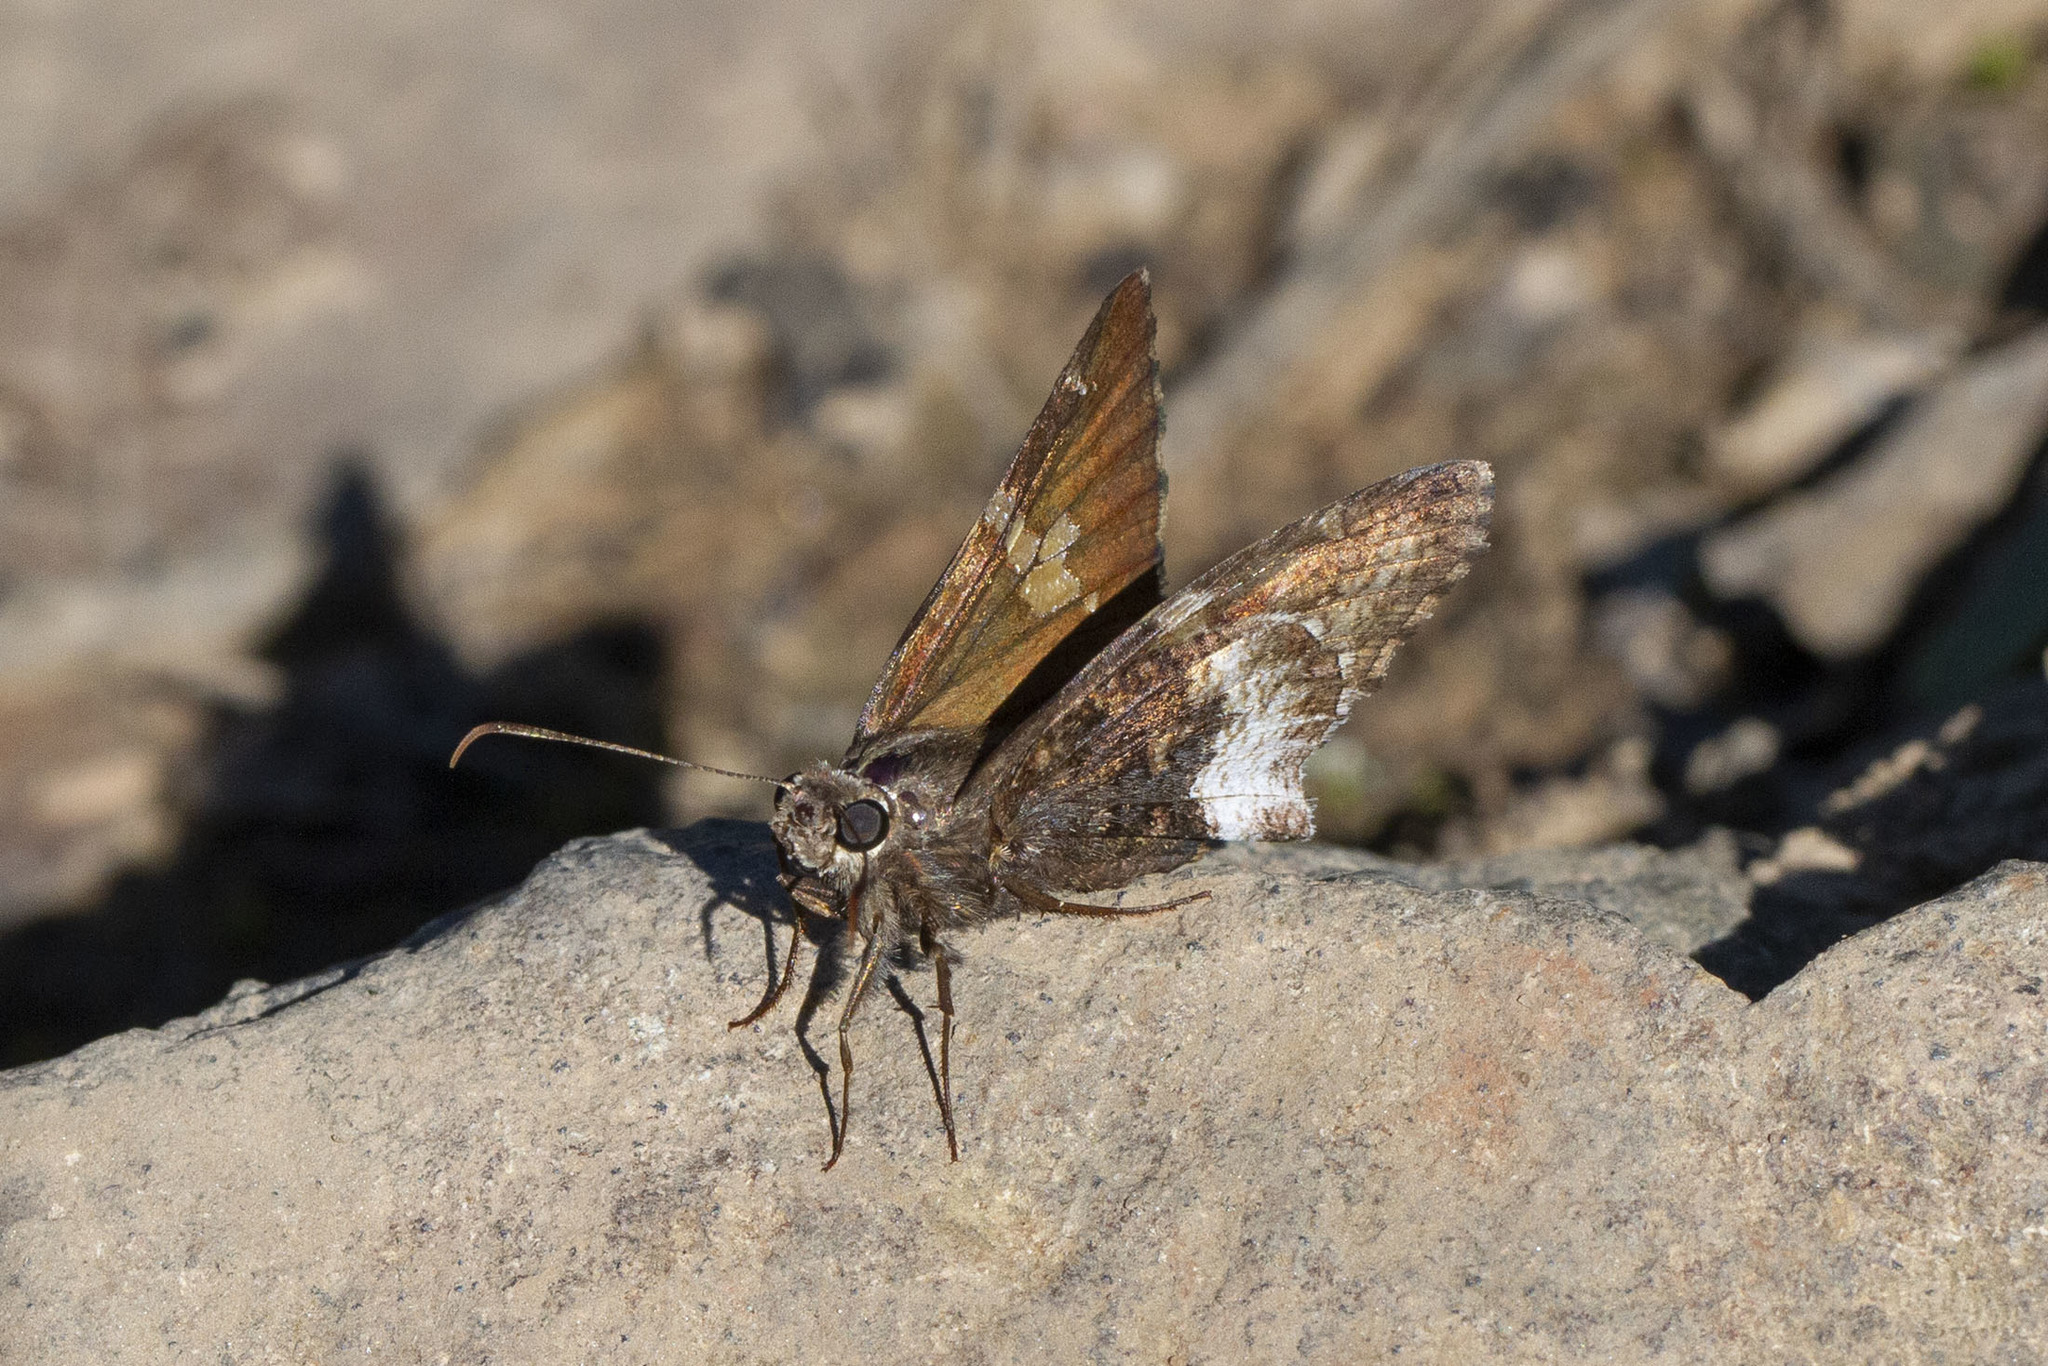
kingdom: Animalia
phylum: Arthropoda
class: Insecta
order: Lepidoptera
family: Hesperiidae
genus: Thorybes
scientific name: Thorybes lyciades
